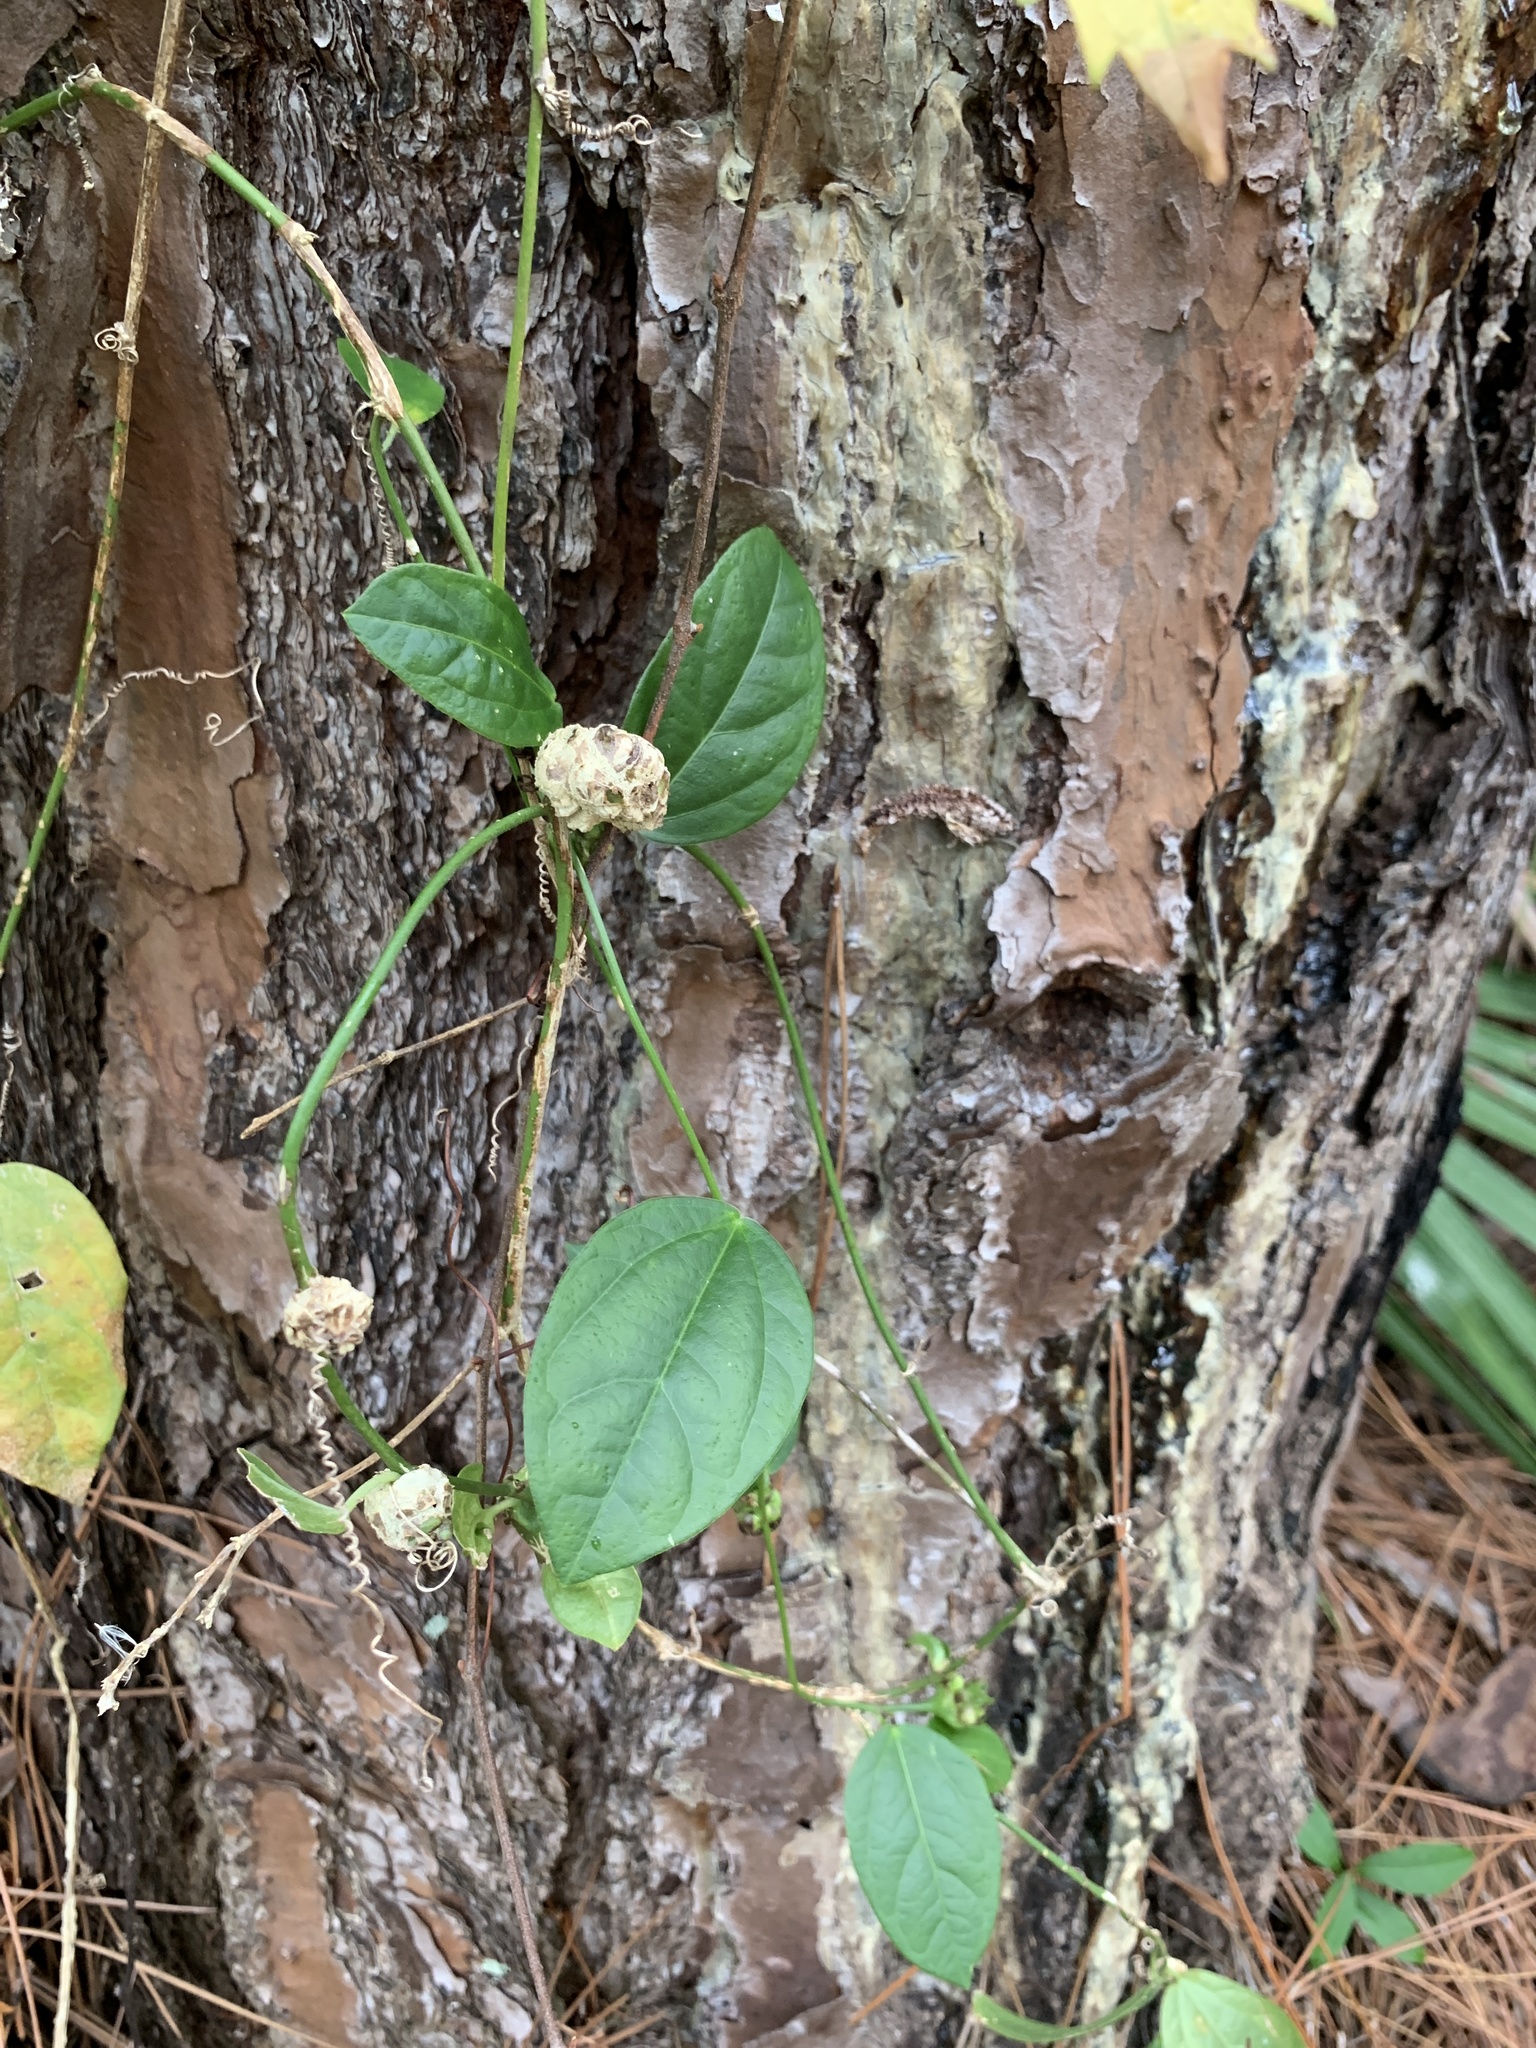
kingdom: Plantae
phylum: Tracheophyta
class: Magnoliopsida
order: Malpighiales
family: Passifloraceae
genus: Passiflora
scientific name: Passiflora pallida
